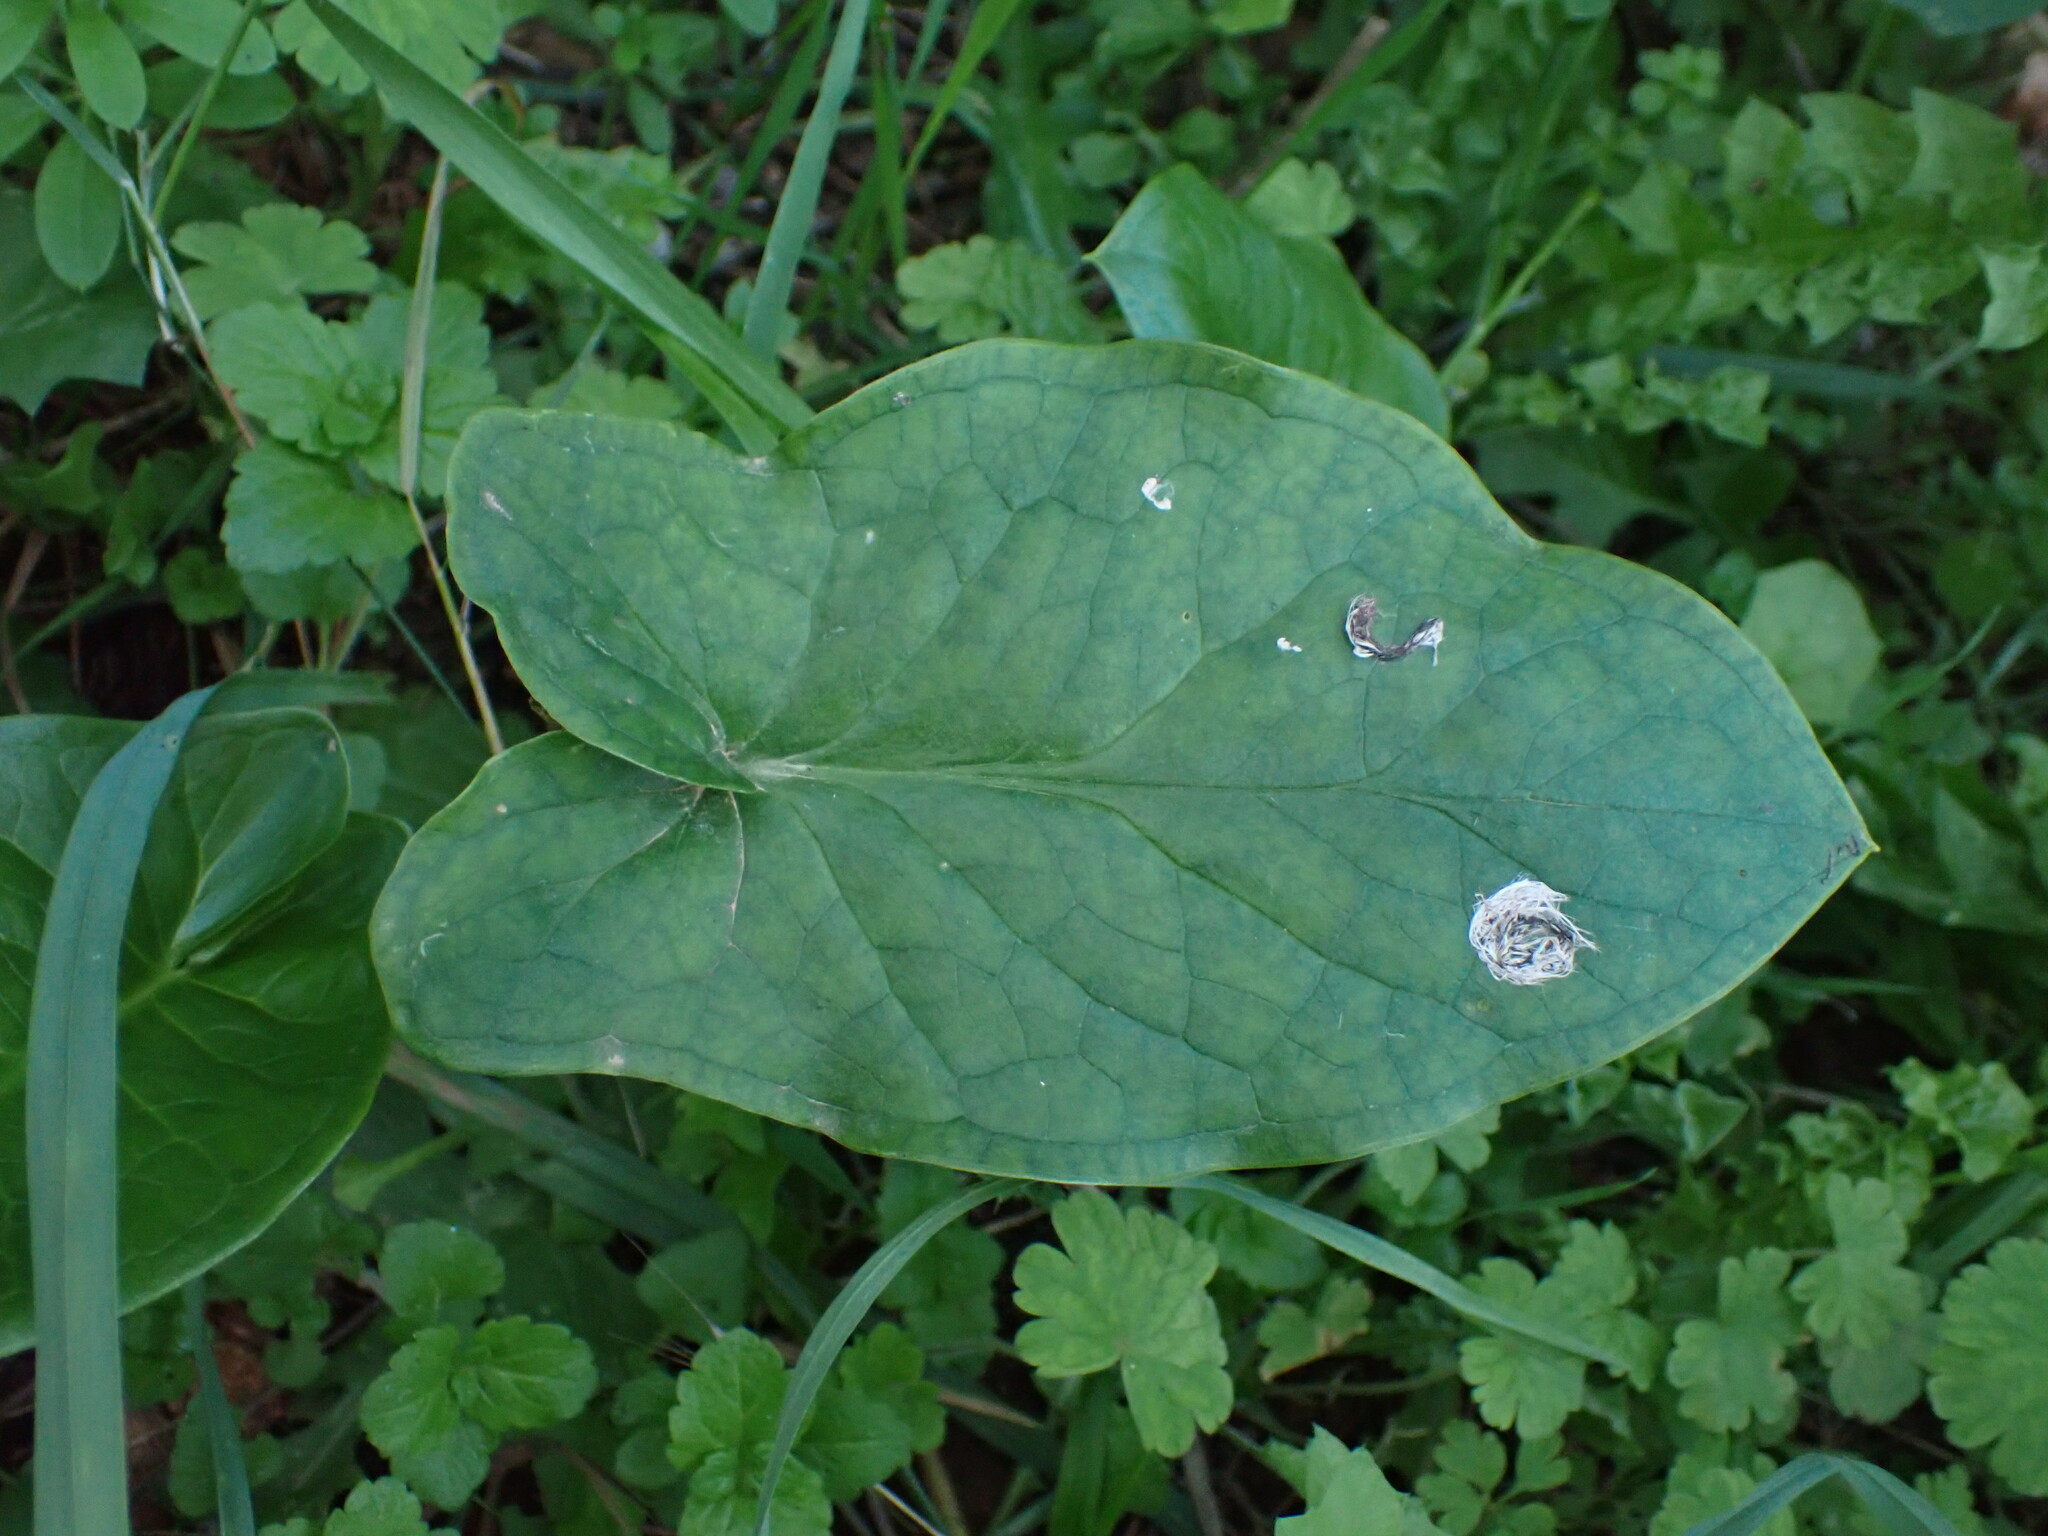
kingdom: Plantae
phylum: Tracheophyta
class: Liliopsida
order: Alismatales
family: Araceae
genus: Arum
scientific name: Arum italicum
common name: Italian lords-and-ladies
